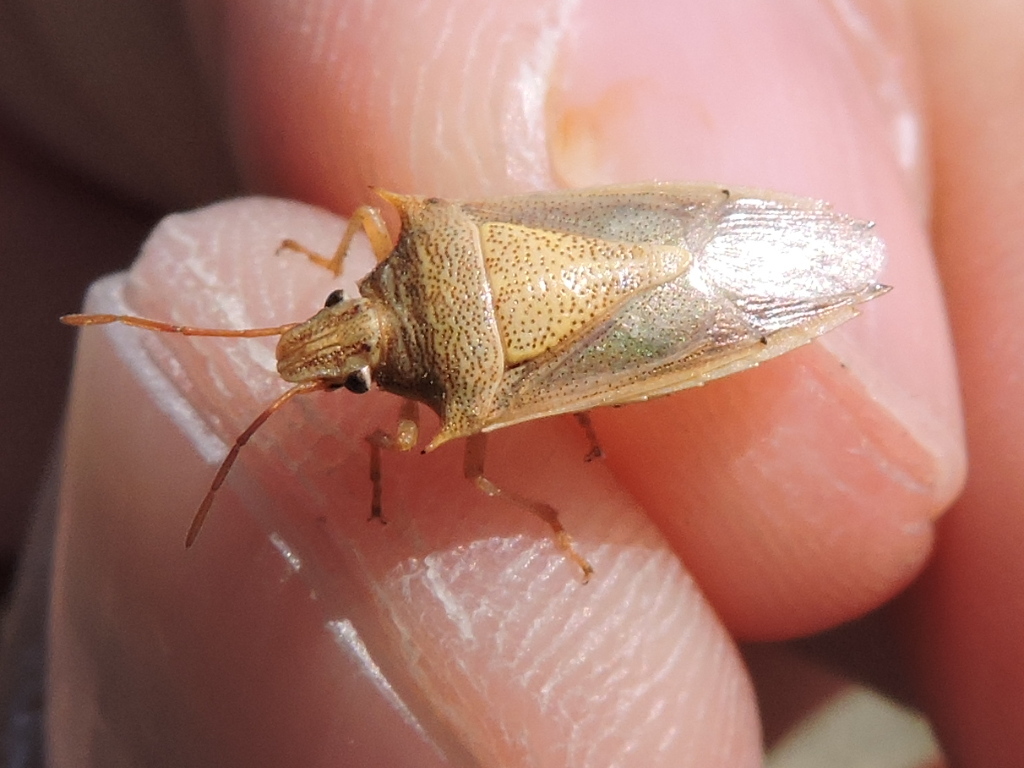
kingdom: Animalia
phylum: Arthropoda
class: Insecta
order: Hemiptera
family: Pentatomidae
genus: Oebalus
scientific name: Oebalus pugnax
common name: Rice stink bug
